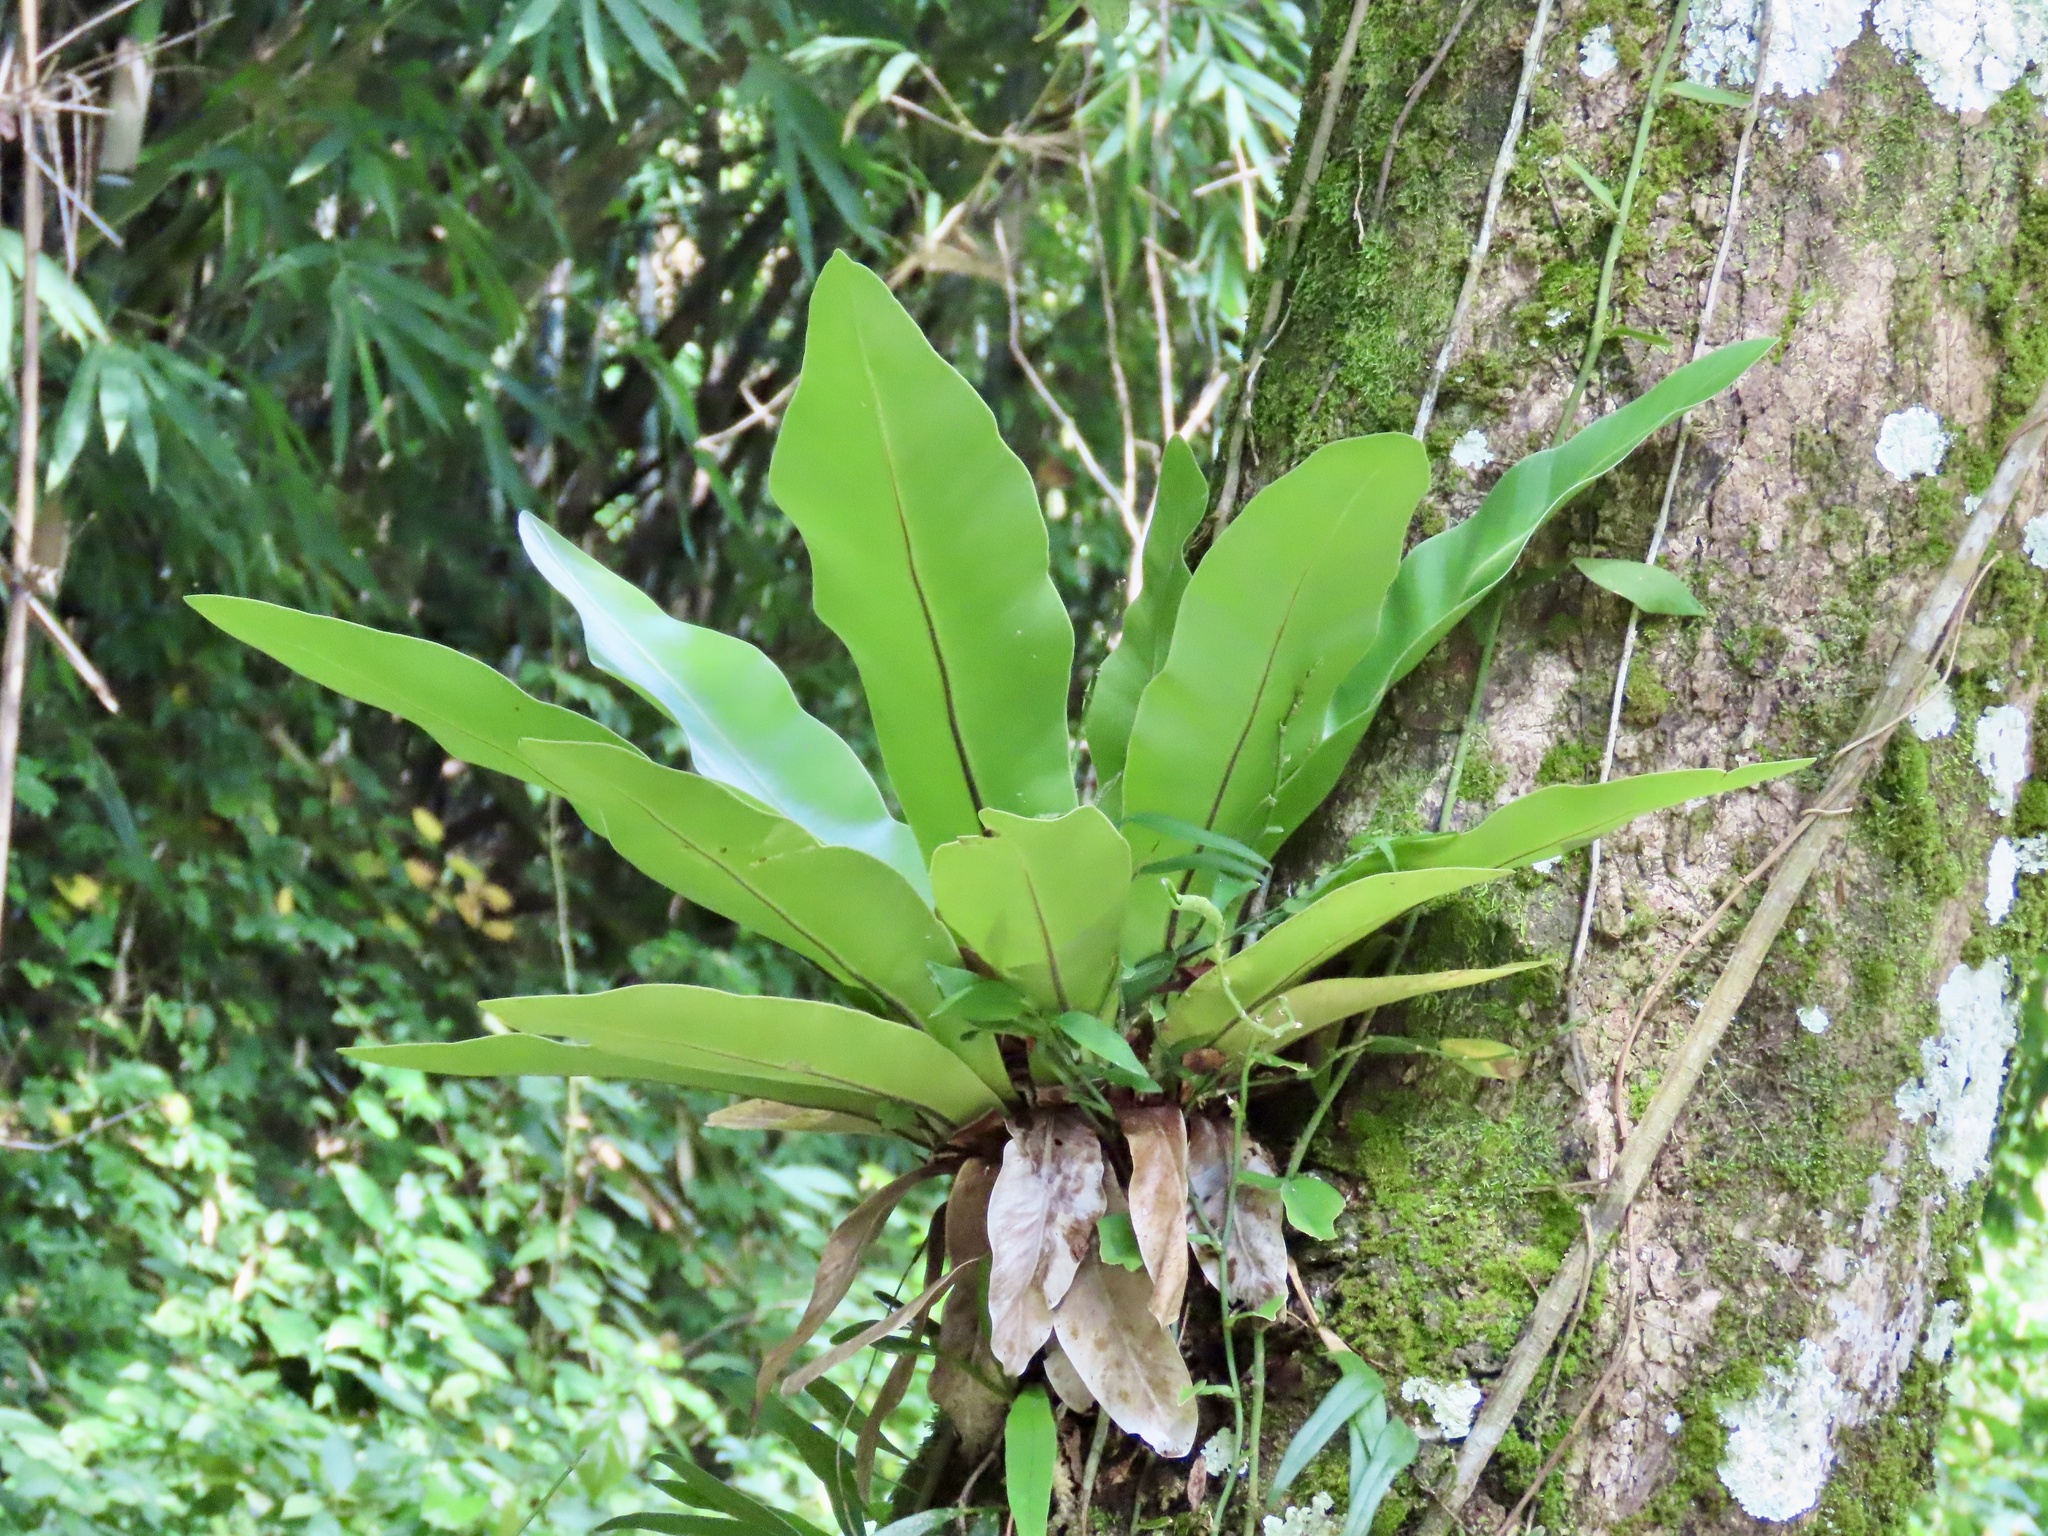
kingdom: Plantae
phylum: Tracheophyta
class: Polypodiopsida
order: Polypodiales
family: Aspleniaceae
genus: Asplenium
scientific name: Asplenium nidus
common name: Bird's-nest fern
